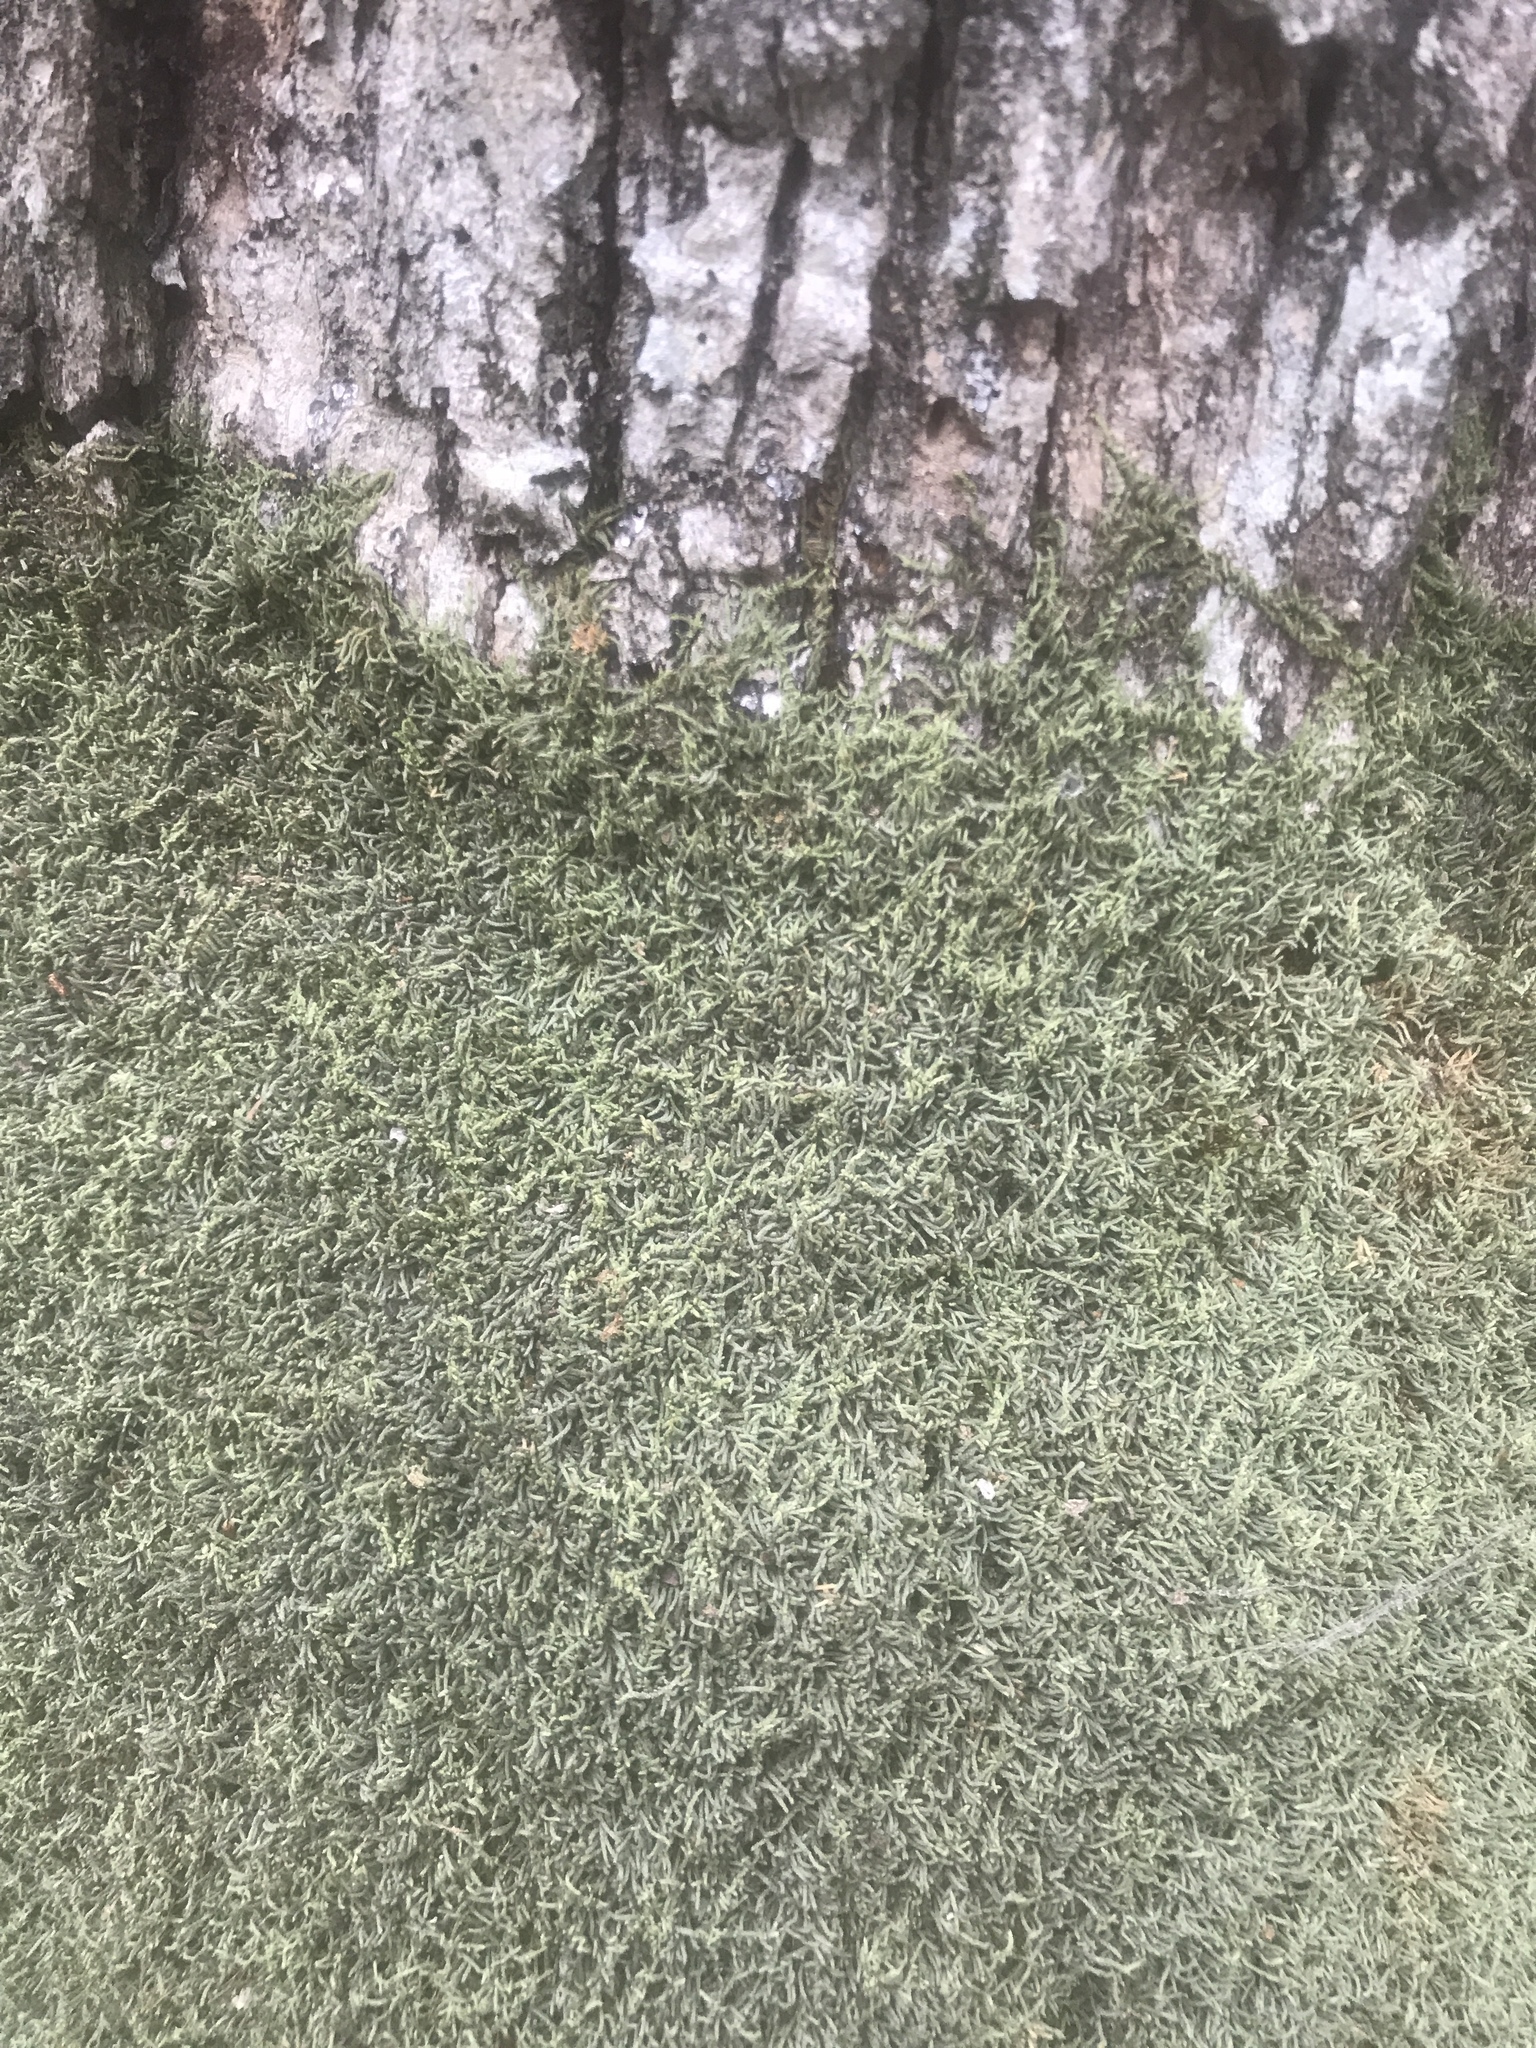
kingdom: Plantae
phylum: Bryophyta
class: Bryopsida
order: Hypnales
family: Theliaceae
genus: Thelia
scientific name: Thelia hirtella
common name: Common thelia
